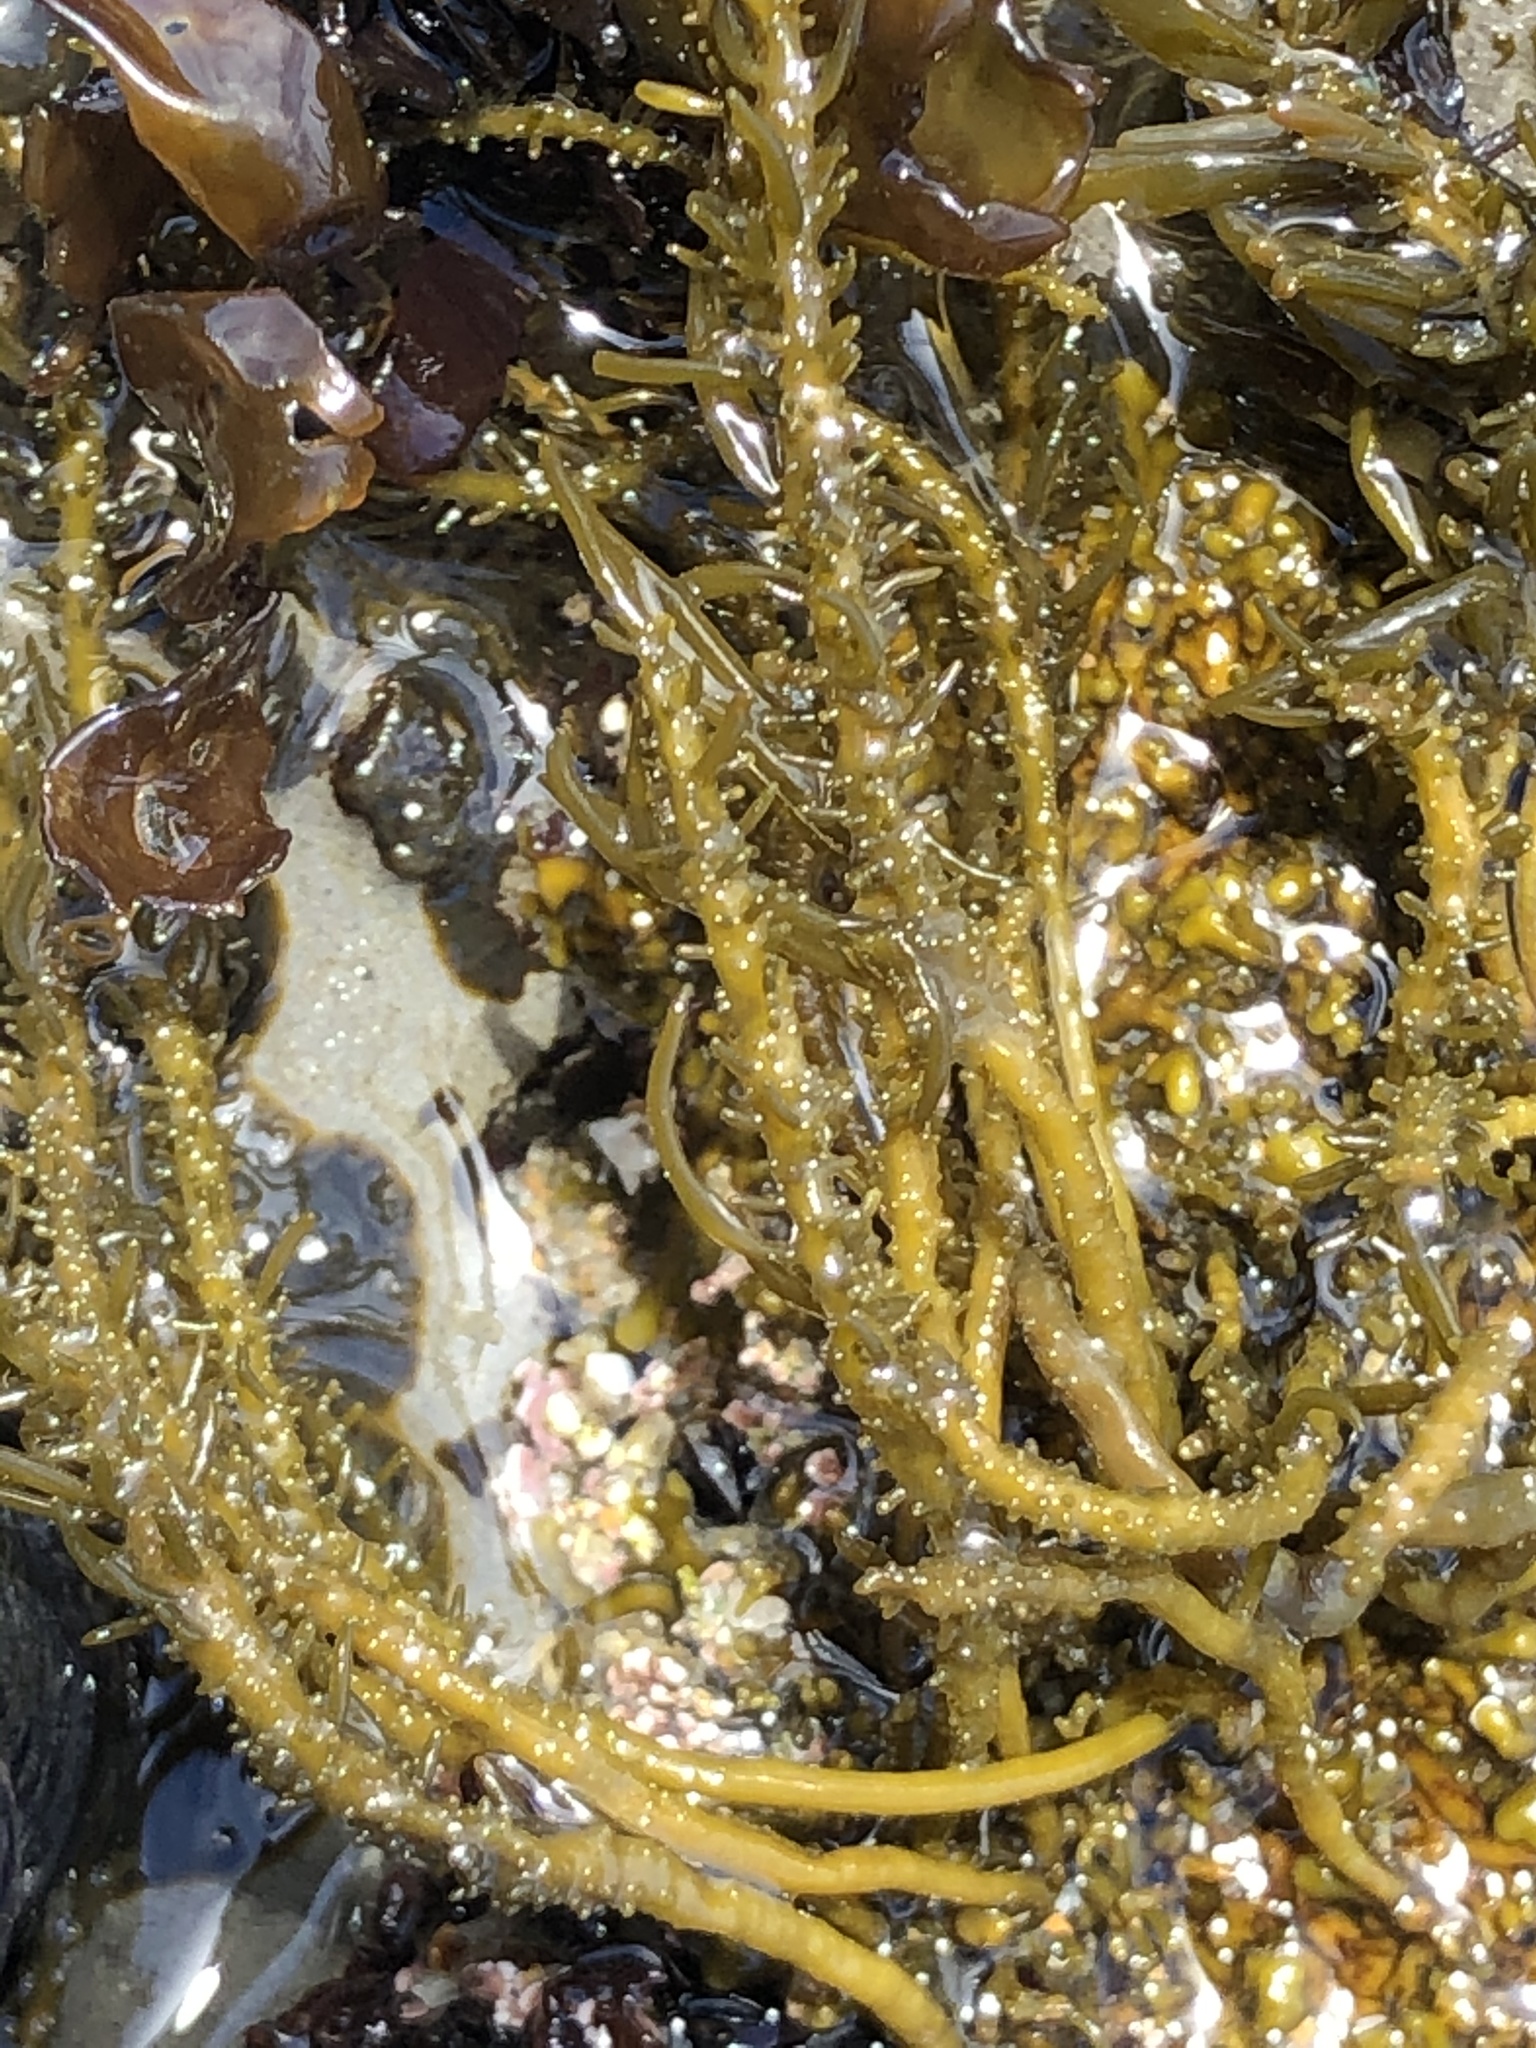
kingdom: Chromista
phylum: Ochrophyta
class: Phaeophyceae
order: Scytosiphonales
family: Scytosiphonaceae
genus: Analipus
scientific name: Analipus japonicus
